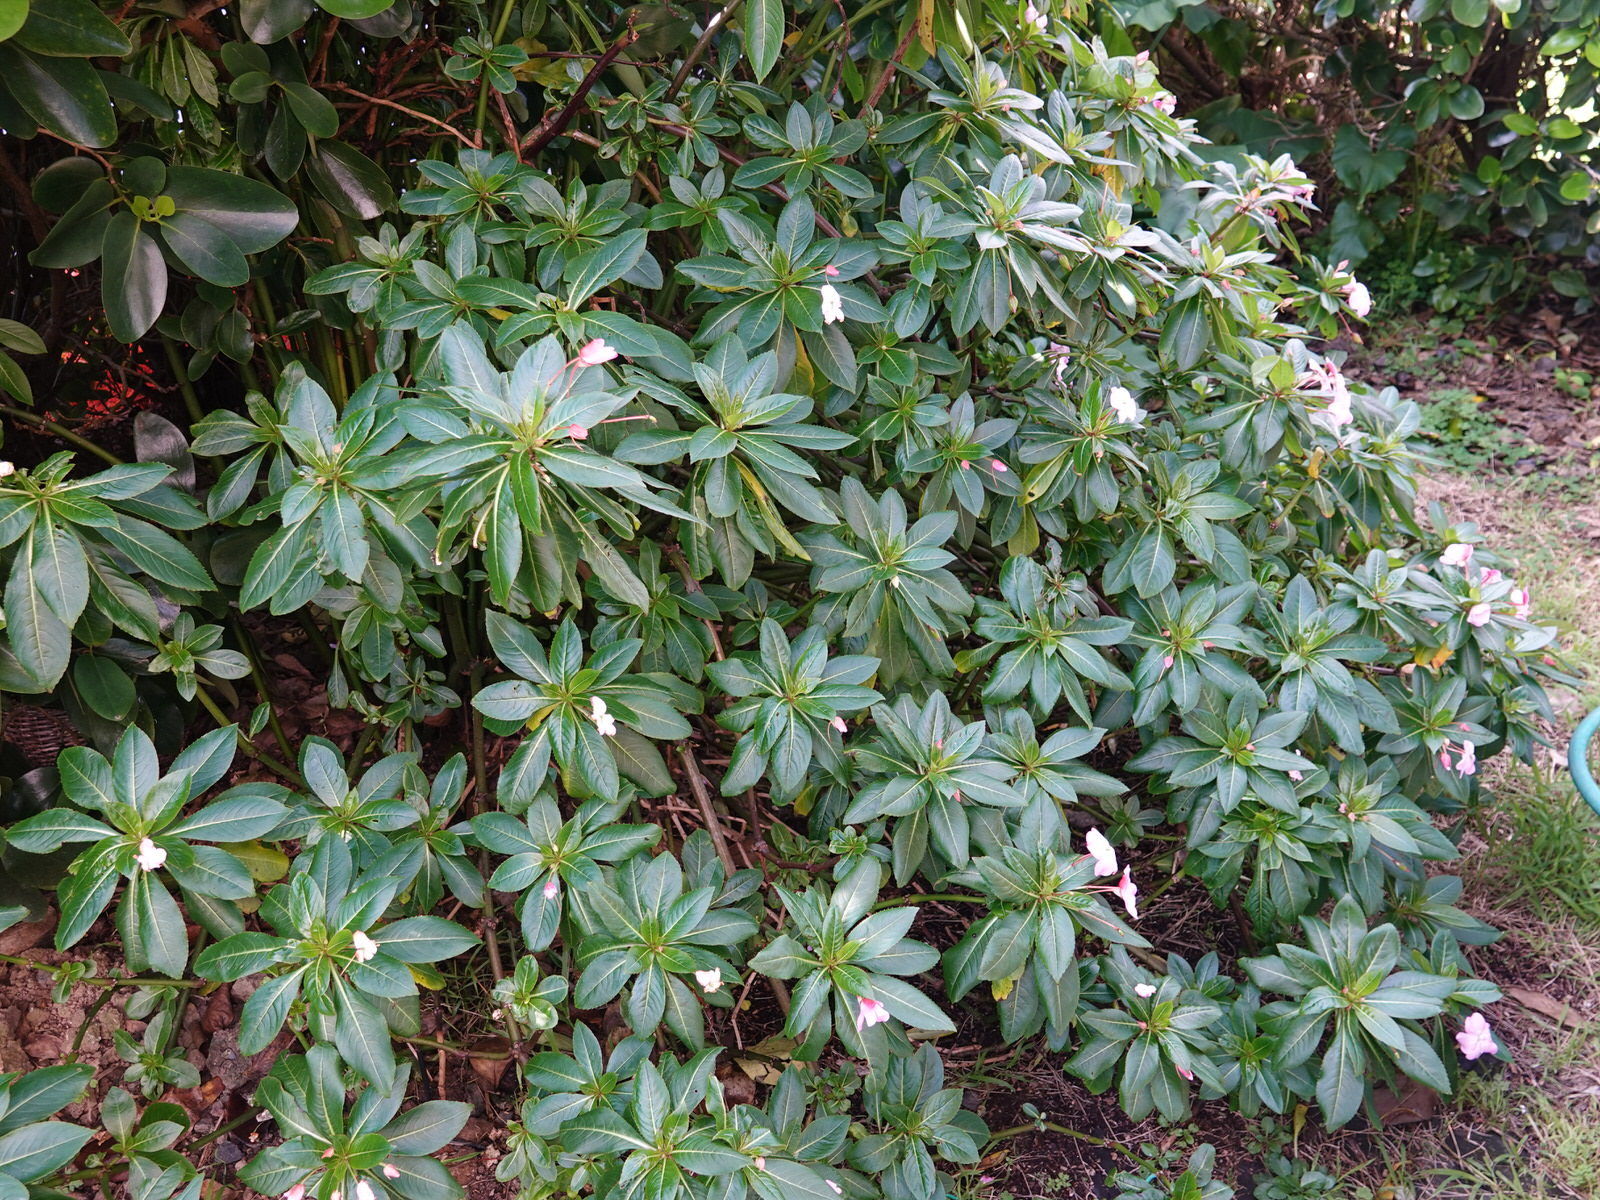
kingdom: Plantae
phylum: Tracheophyta
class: Magnoliopsida
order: Ericales
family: Balsaminaceae
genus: Impatiens
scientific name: Impatiens sodenii
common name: Oliver's touch-me-not
